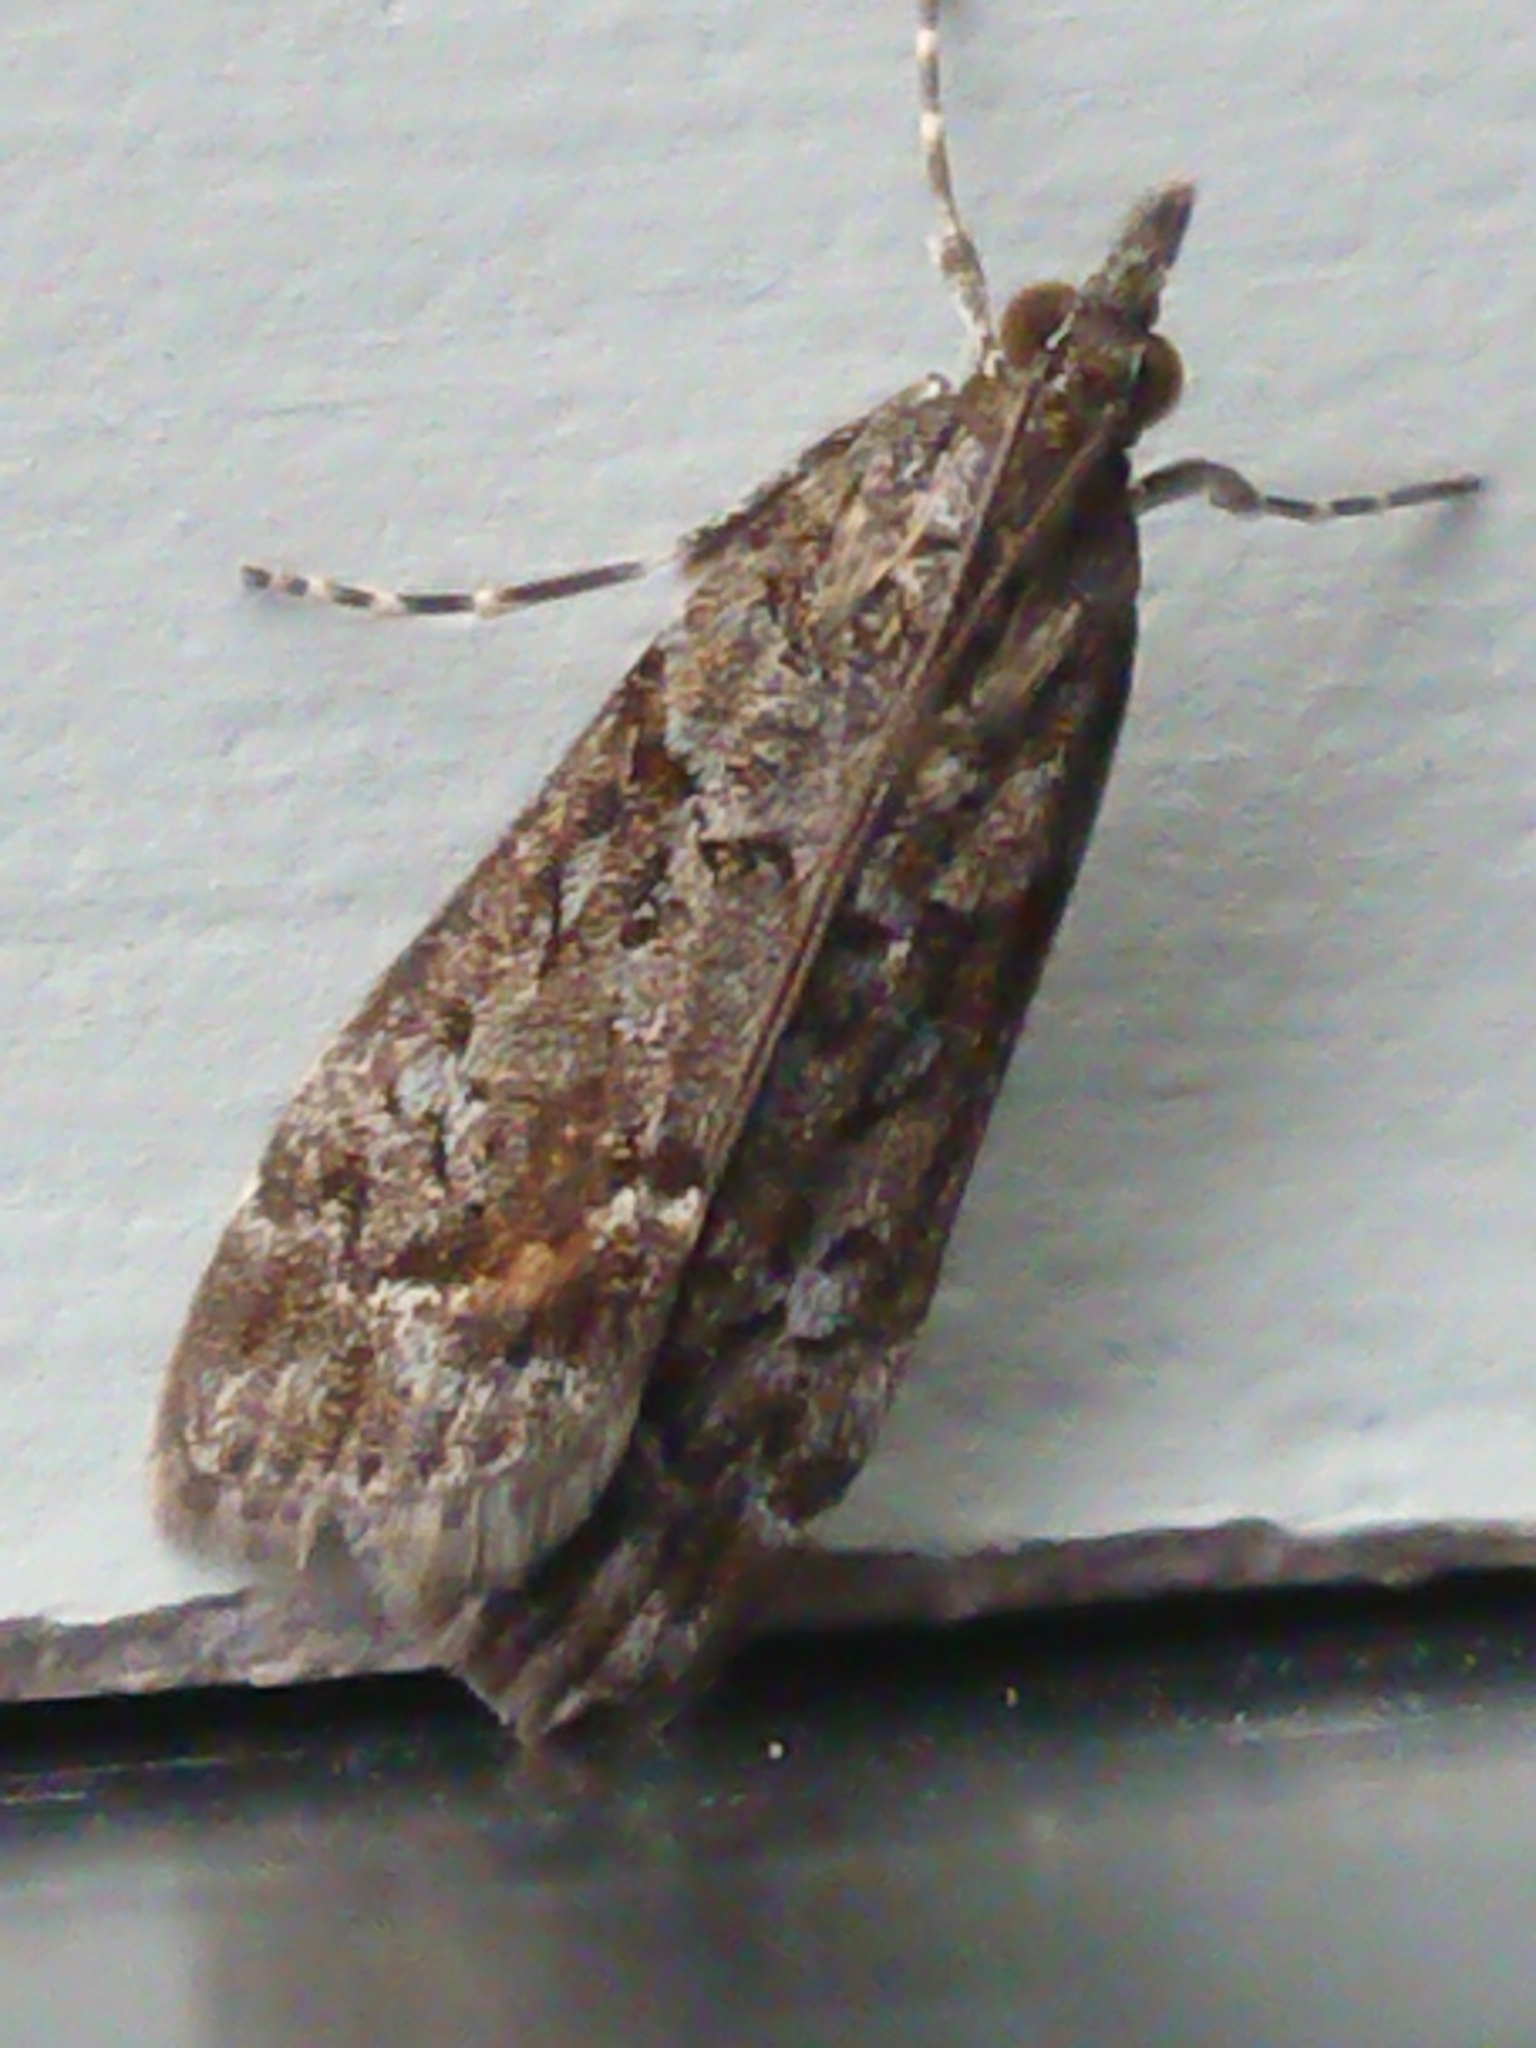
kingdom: Animalia
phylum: Arthropoda
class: Insecta
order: Lepidoptera
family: Crambidae
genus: Eudonia
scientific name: Eudonia submarginalis
